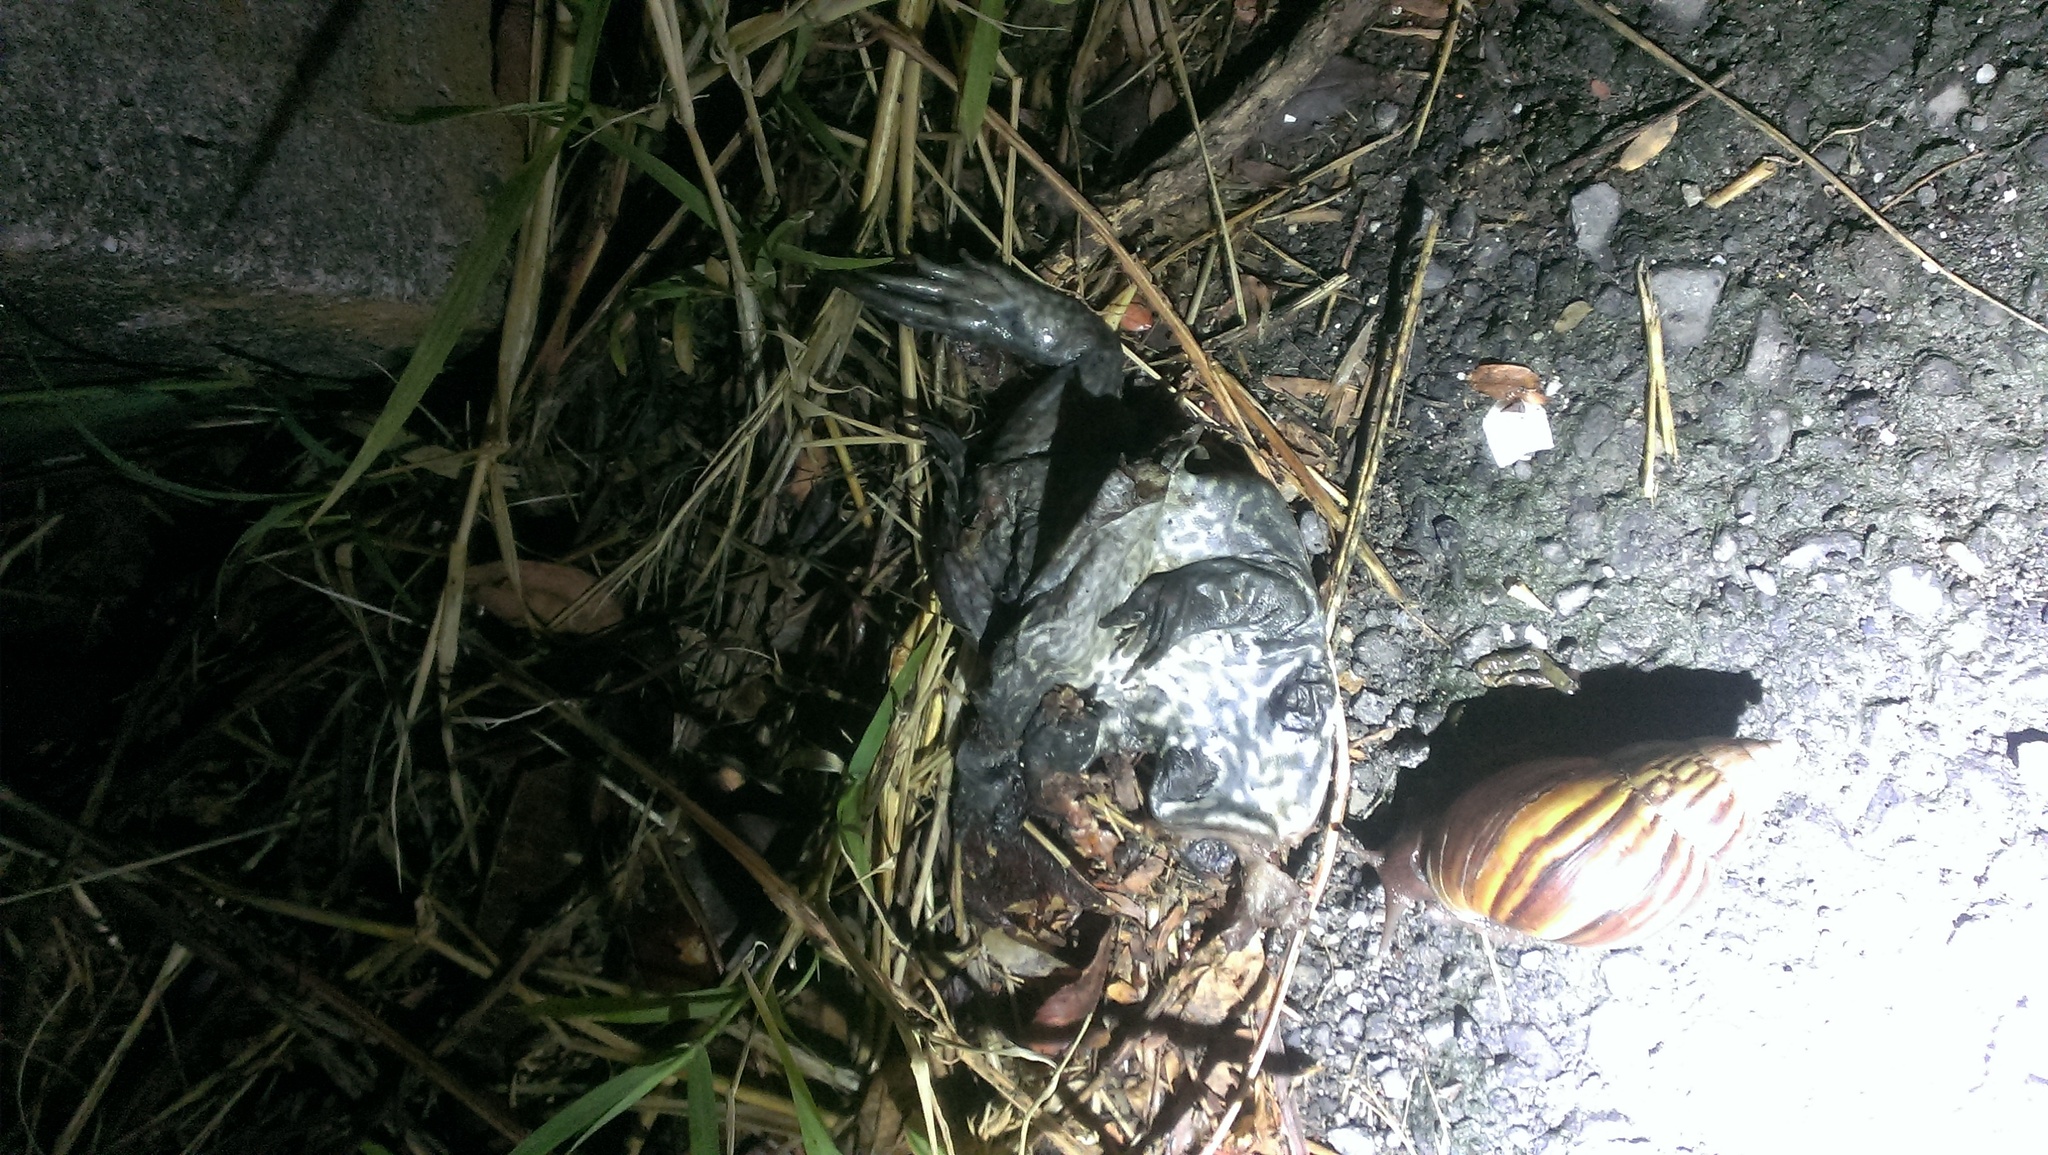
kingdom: Animalia
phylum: Chordata
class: Amphibia
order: Anura
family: Dicroglossidae
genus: Hoplobatrachus
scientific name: Hoplobatrachus rugulosus
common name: Chinese edible frog
